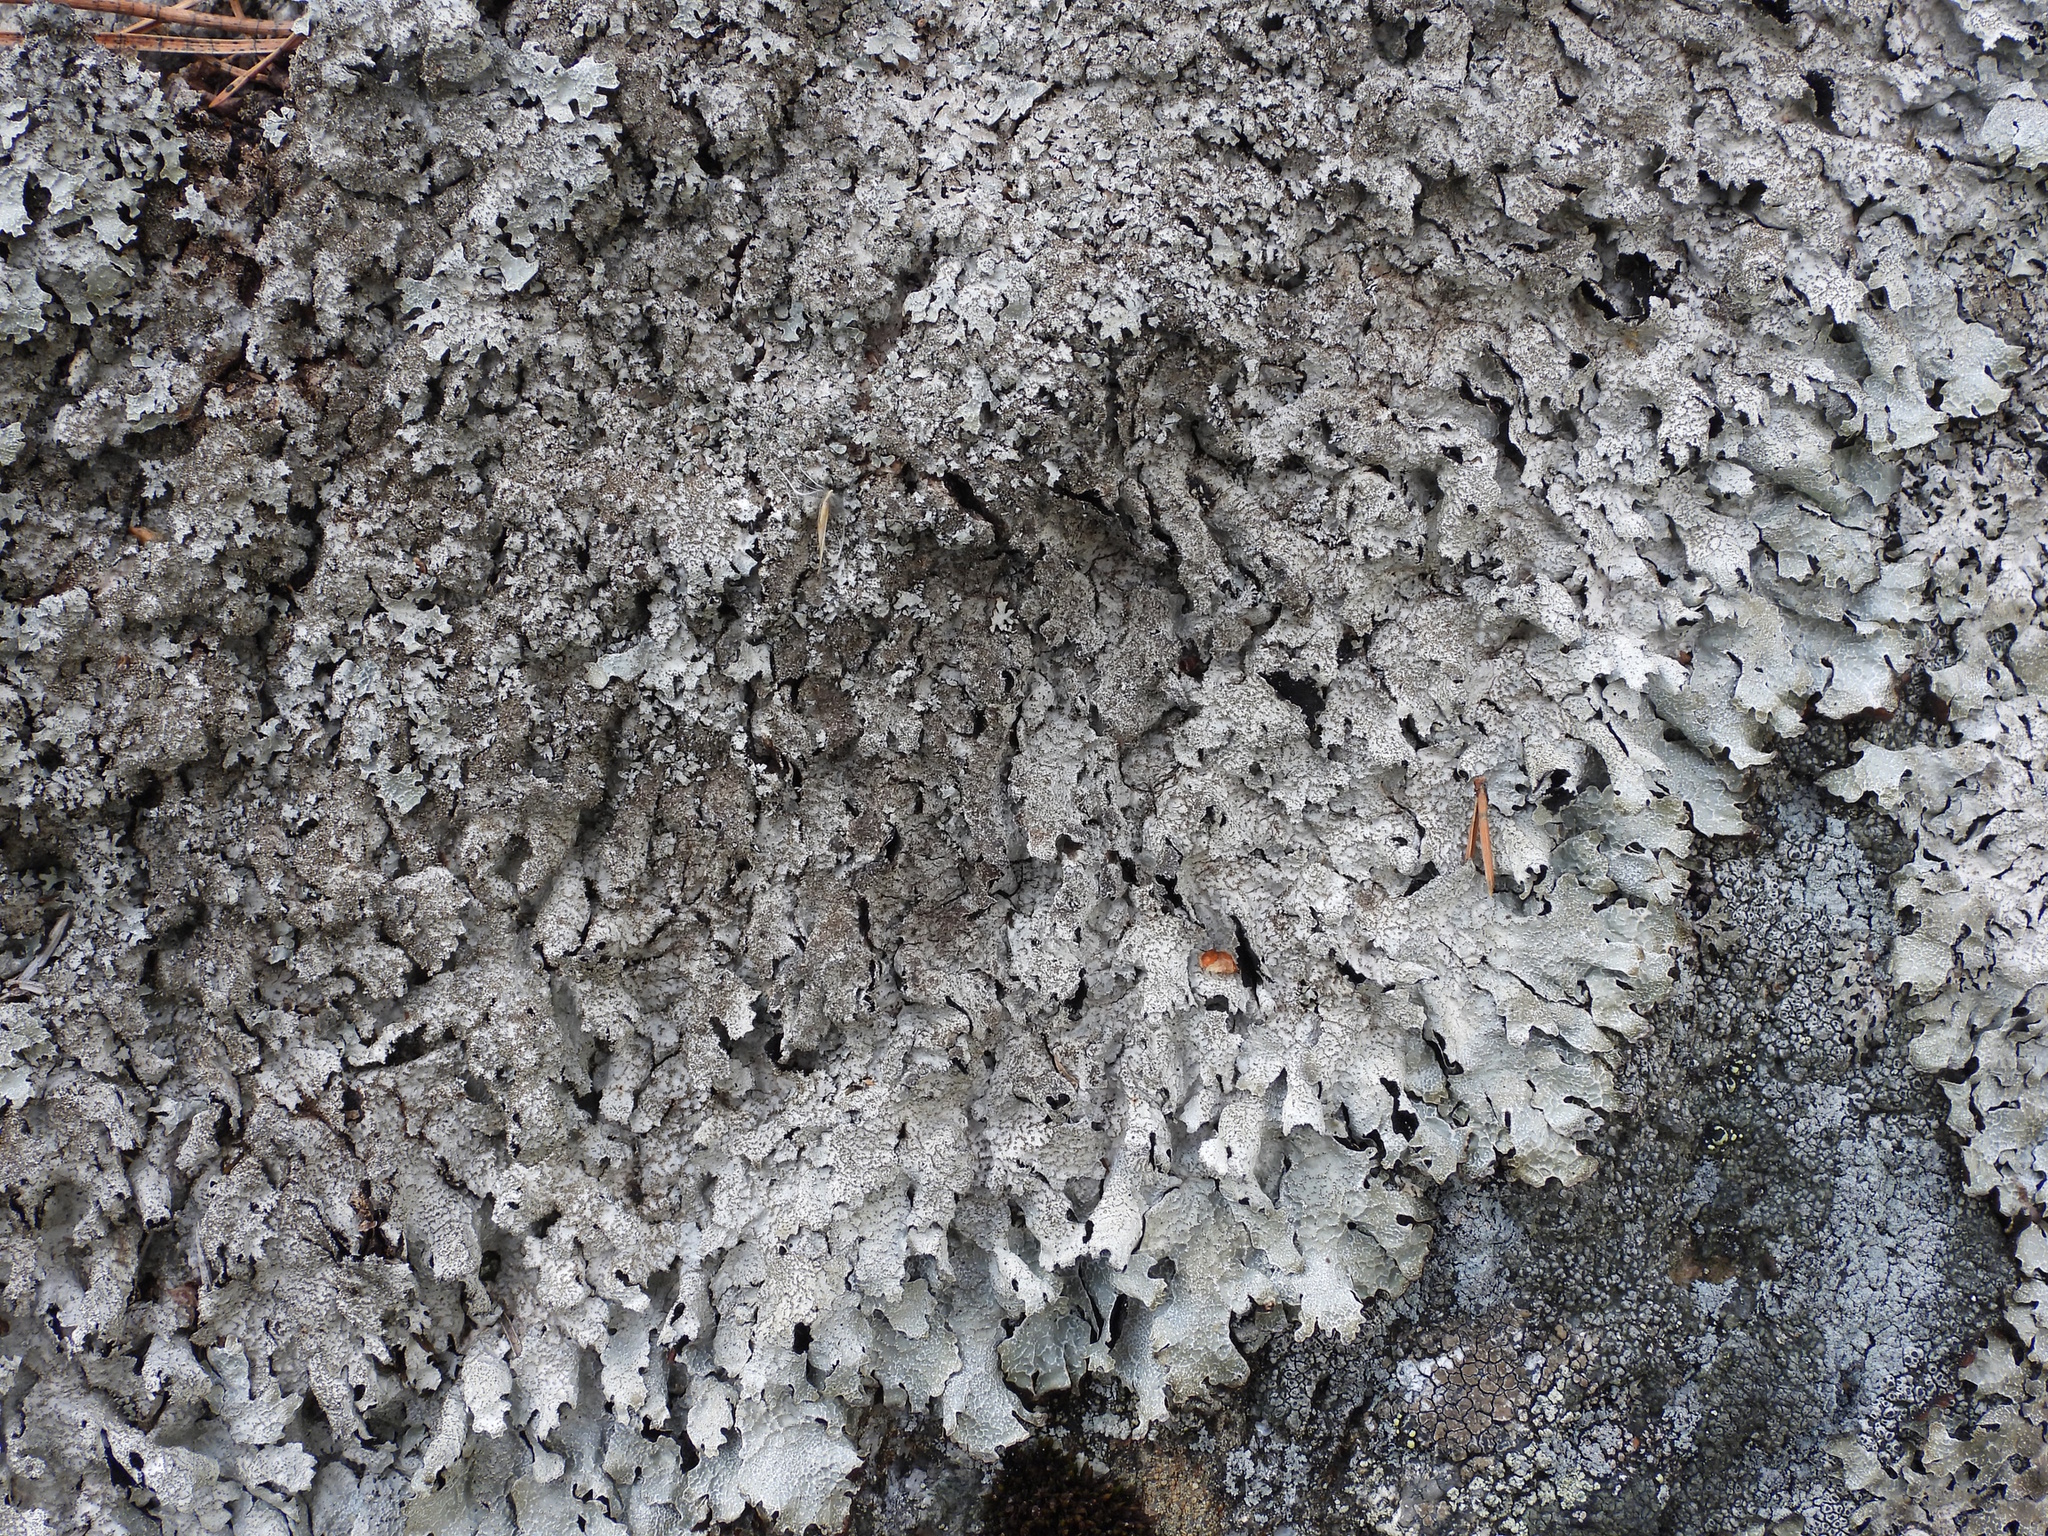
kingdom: Fungi
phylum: Ascomycota
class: Lecanoromycetes
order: Lecanorales
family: Parmeliaceae
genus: Parmelia
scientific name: Parmelia saxatilis
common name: Salted shield lichen
